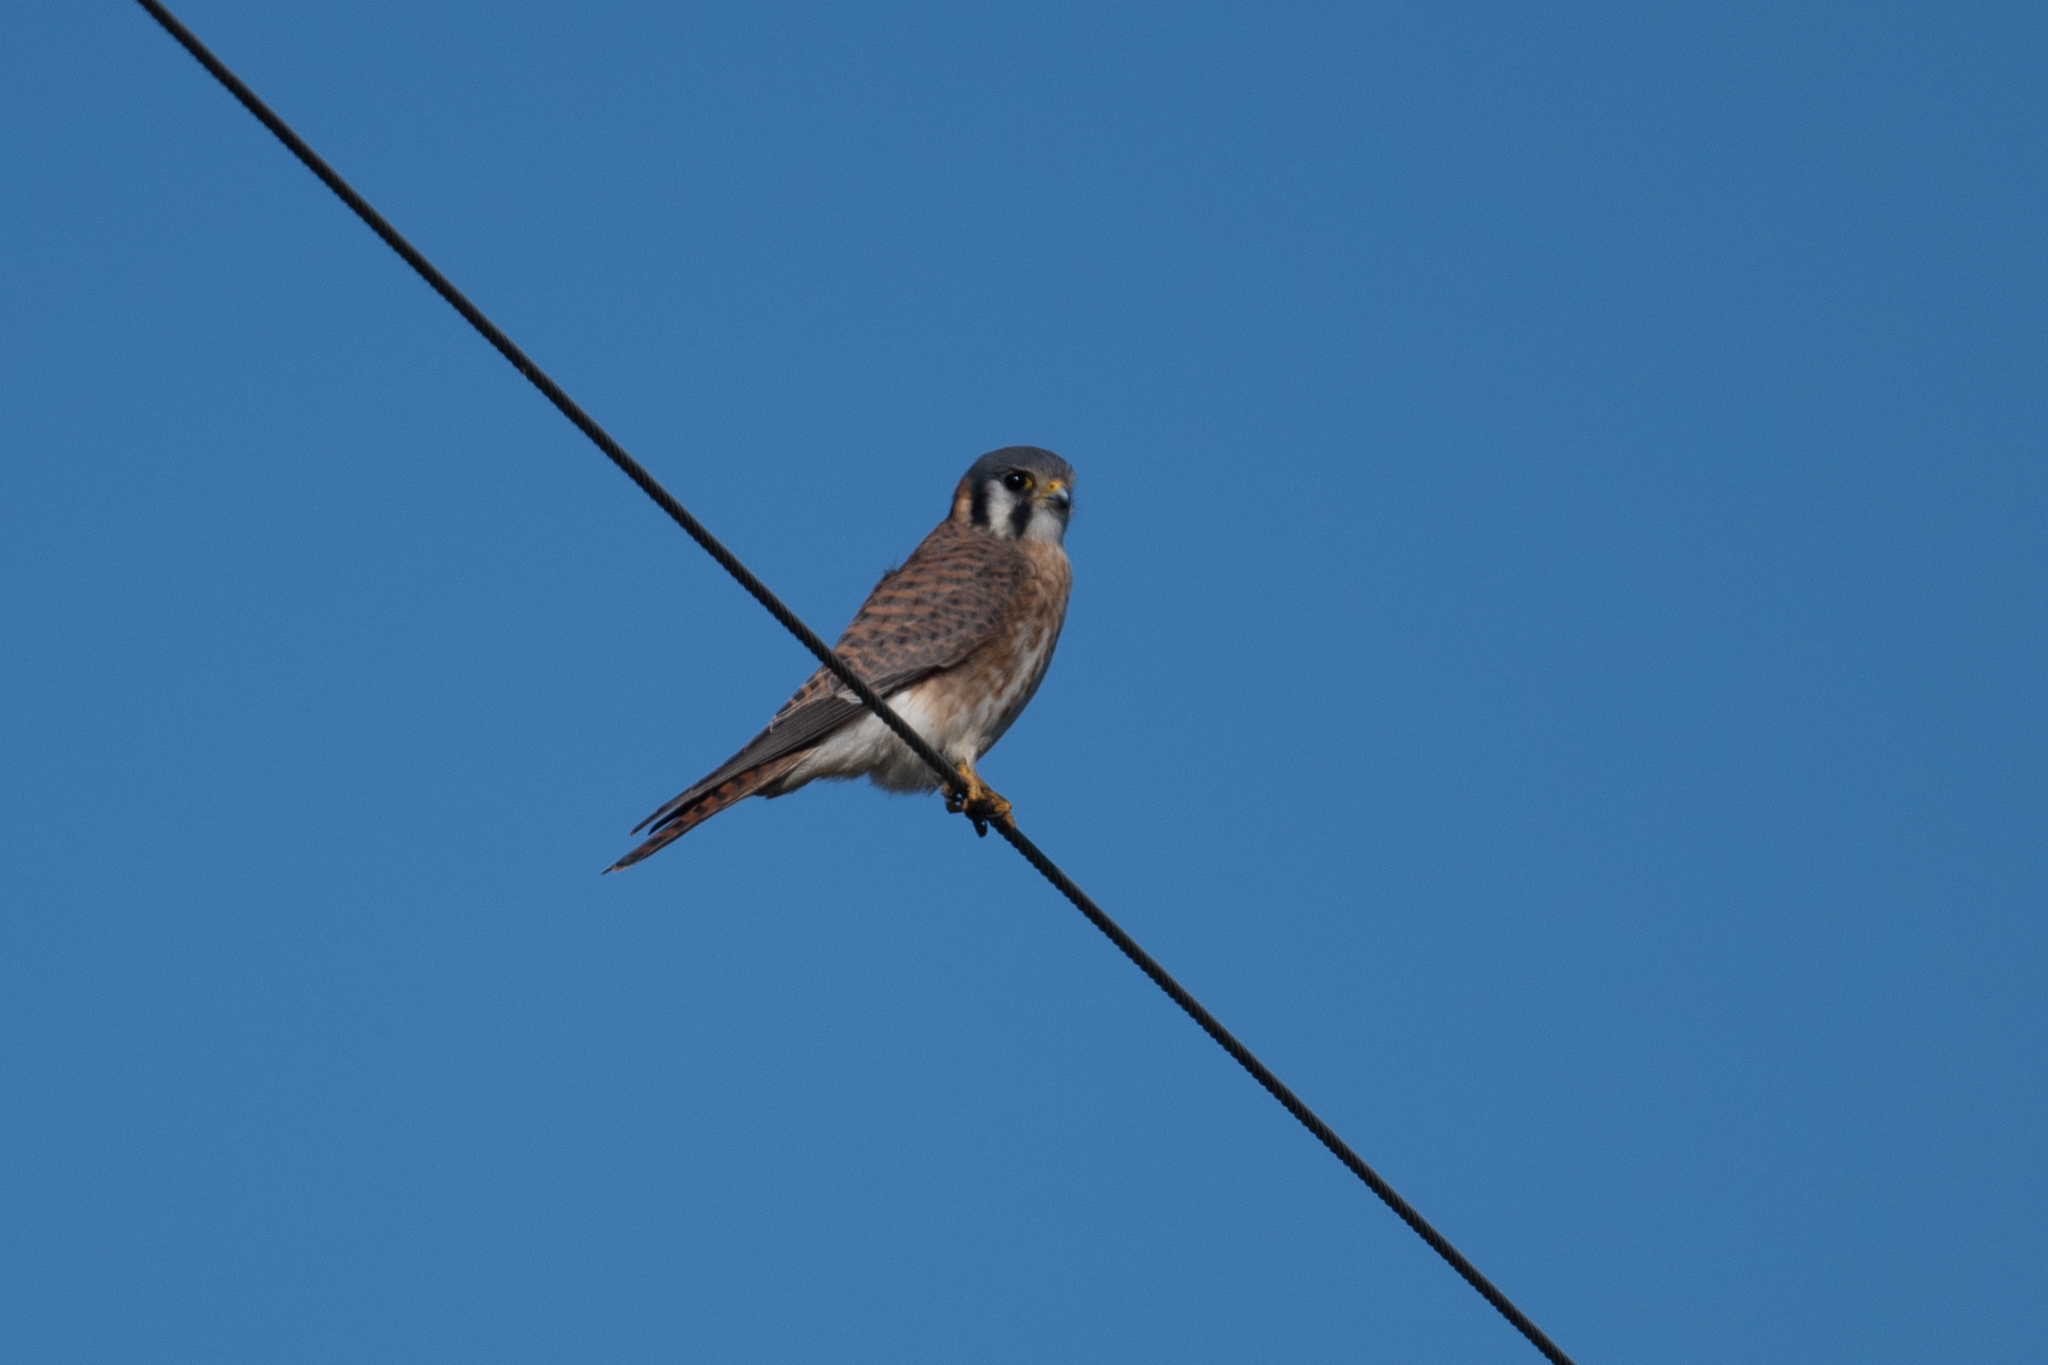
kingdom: Animalia
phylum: Chordata
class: Aves
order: Falconiformes
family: Falconidae
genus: Falco
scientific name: Falco sparverius
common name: American kestrel
